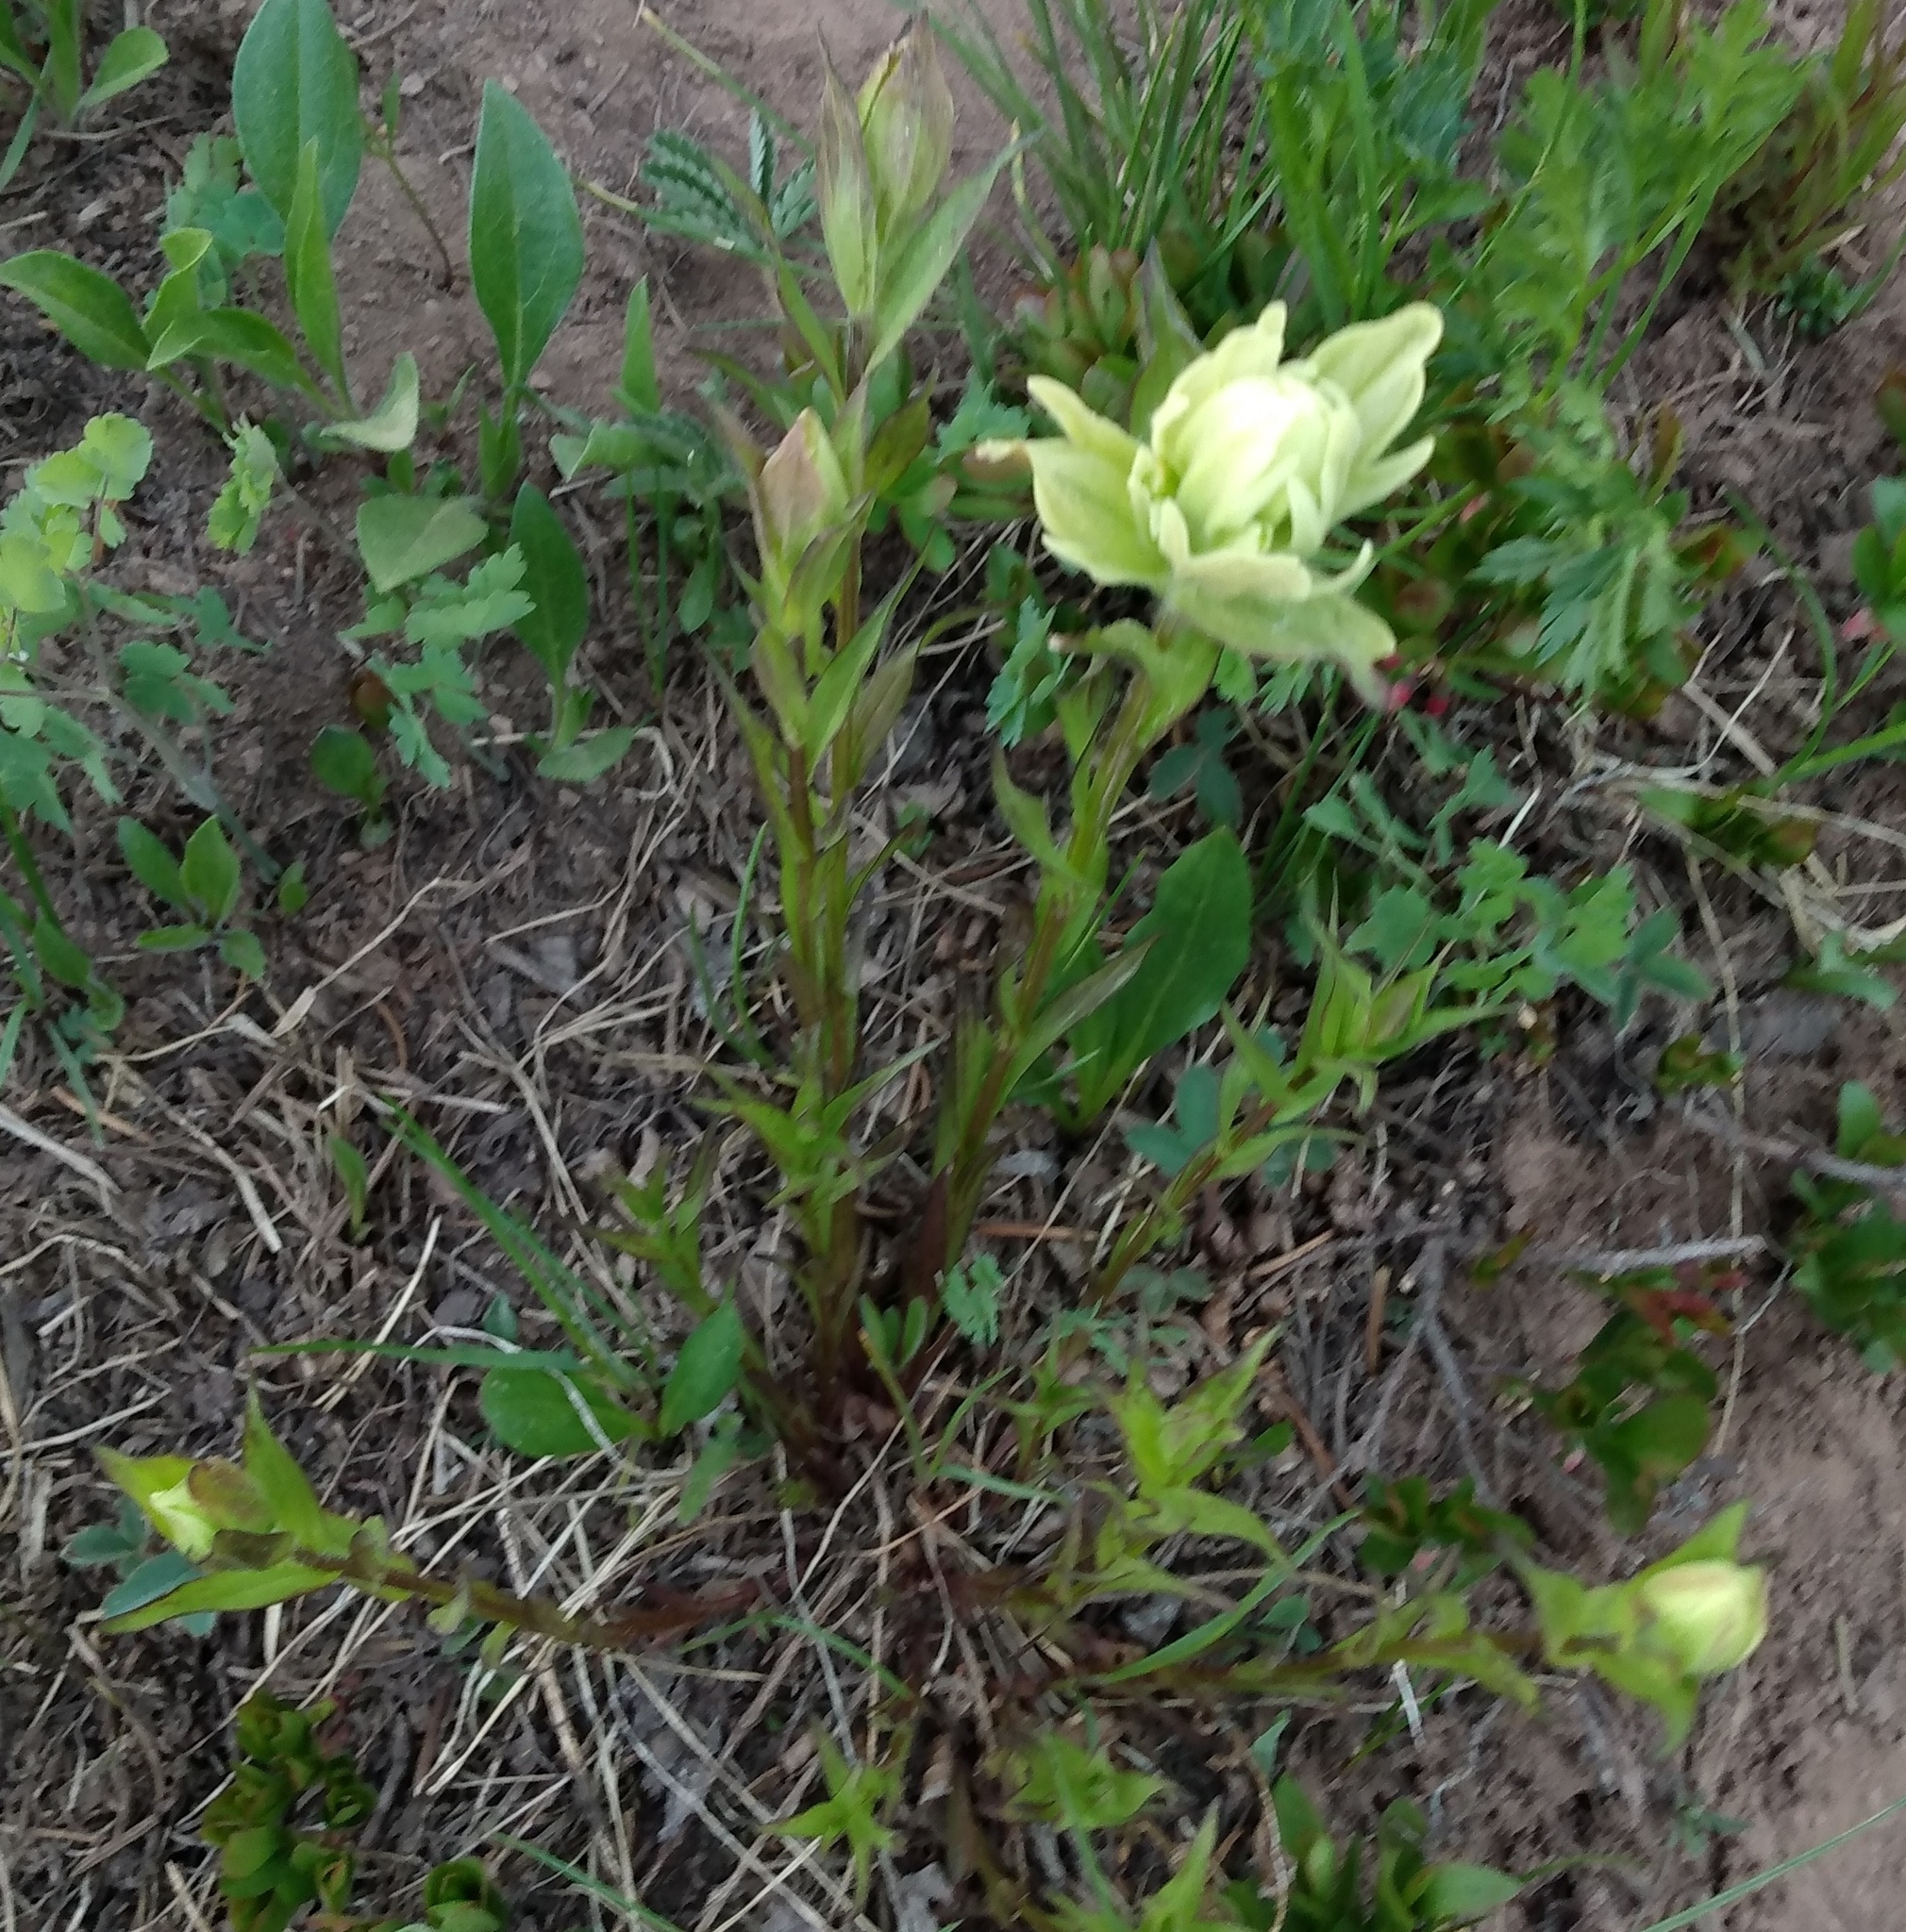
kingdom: Plantae
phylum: Tracheophyta
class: Magnoliopsida
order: Lamiales
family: Orobanchaceae
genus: Castilleja
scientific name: Castilleja septentrionalis
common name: Northeastern paintbrush
